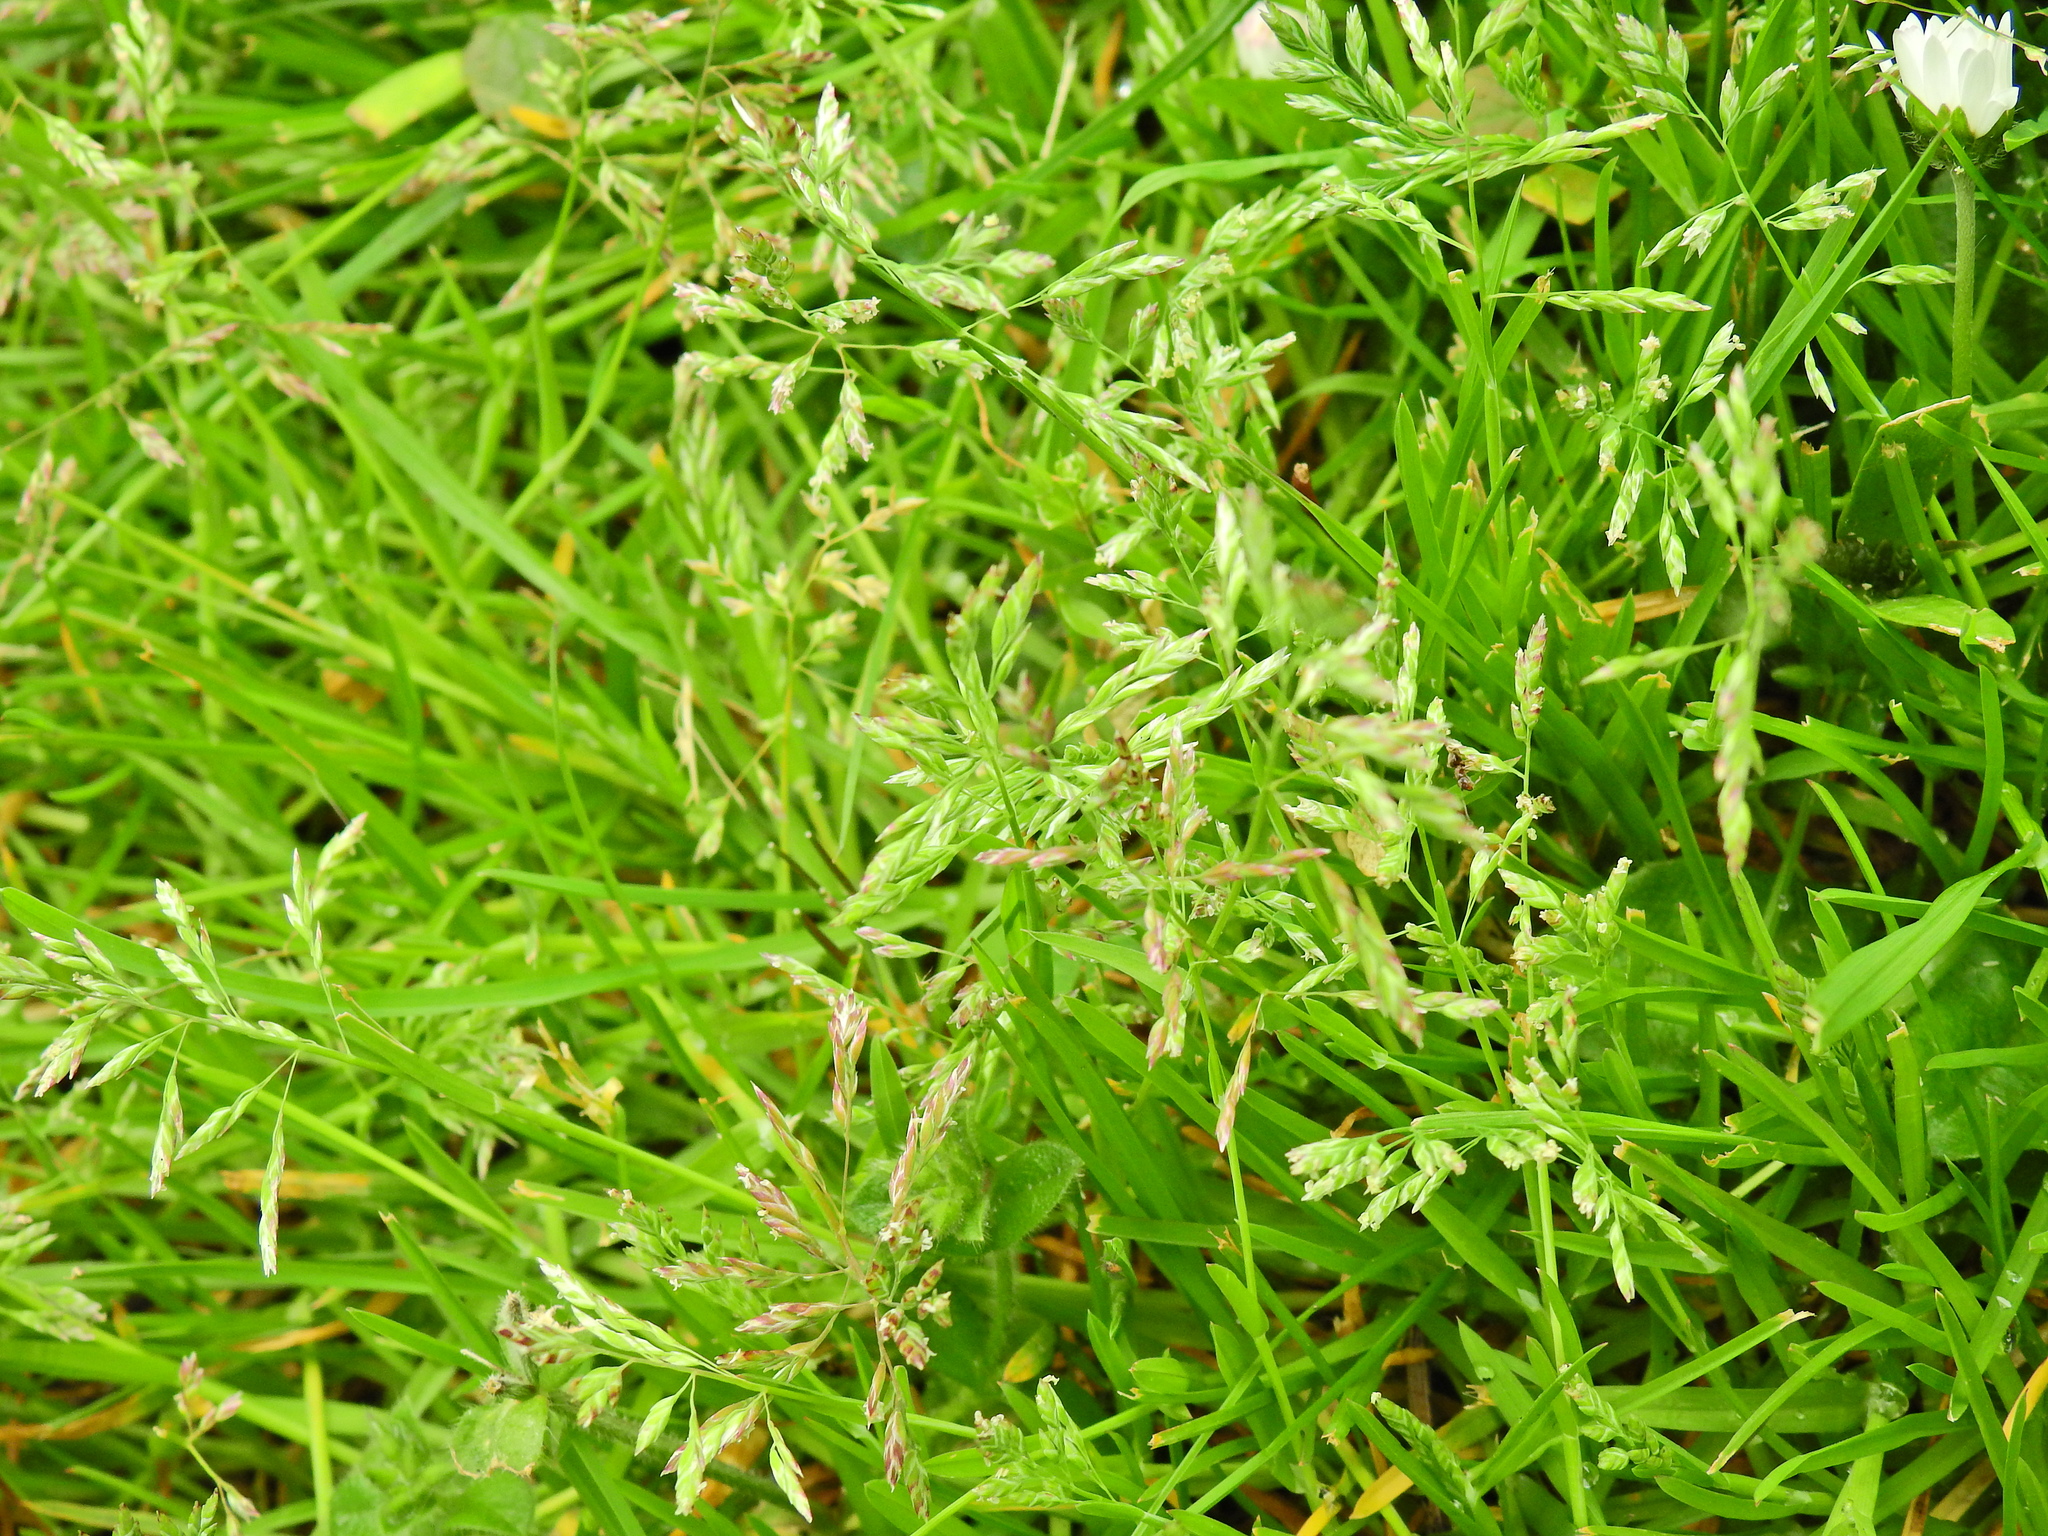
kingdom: Plantae
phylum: Tracheophyta
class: Liliopsida
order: Poales
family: Poaceae
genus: Poa
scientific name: Poa annua
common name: Annual bluegrass
